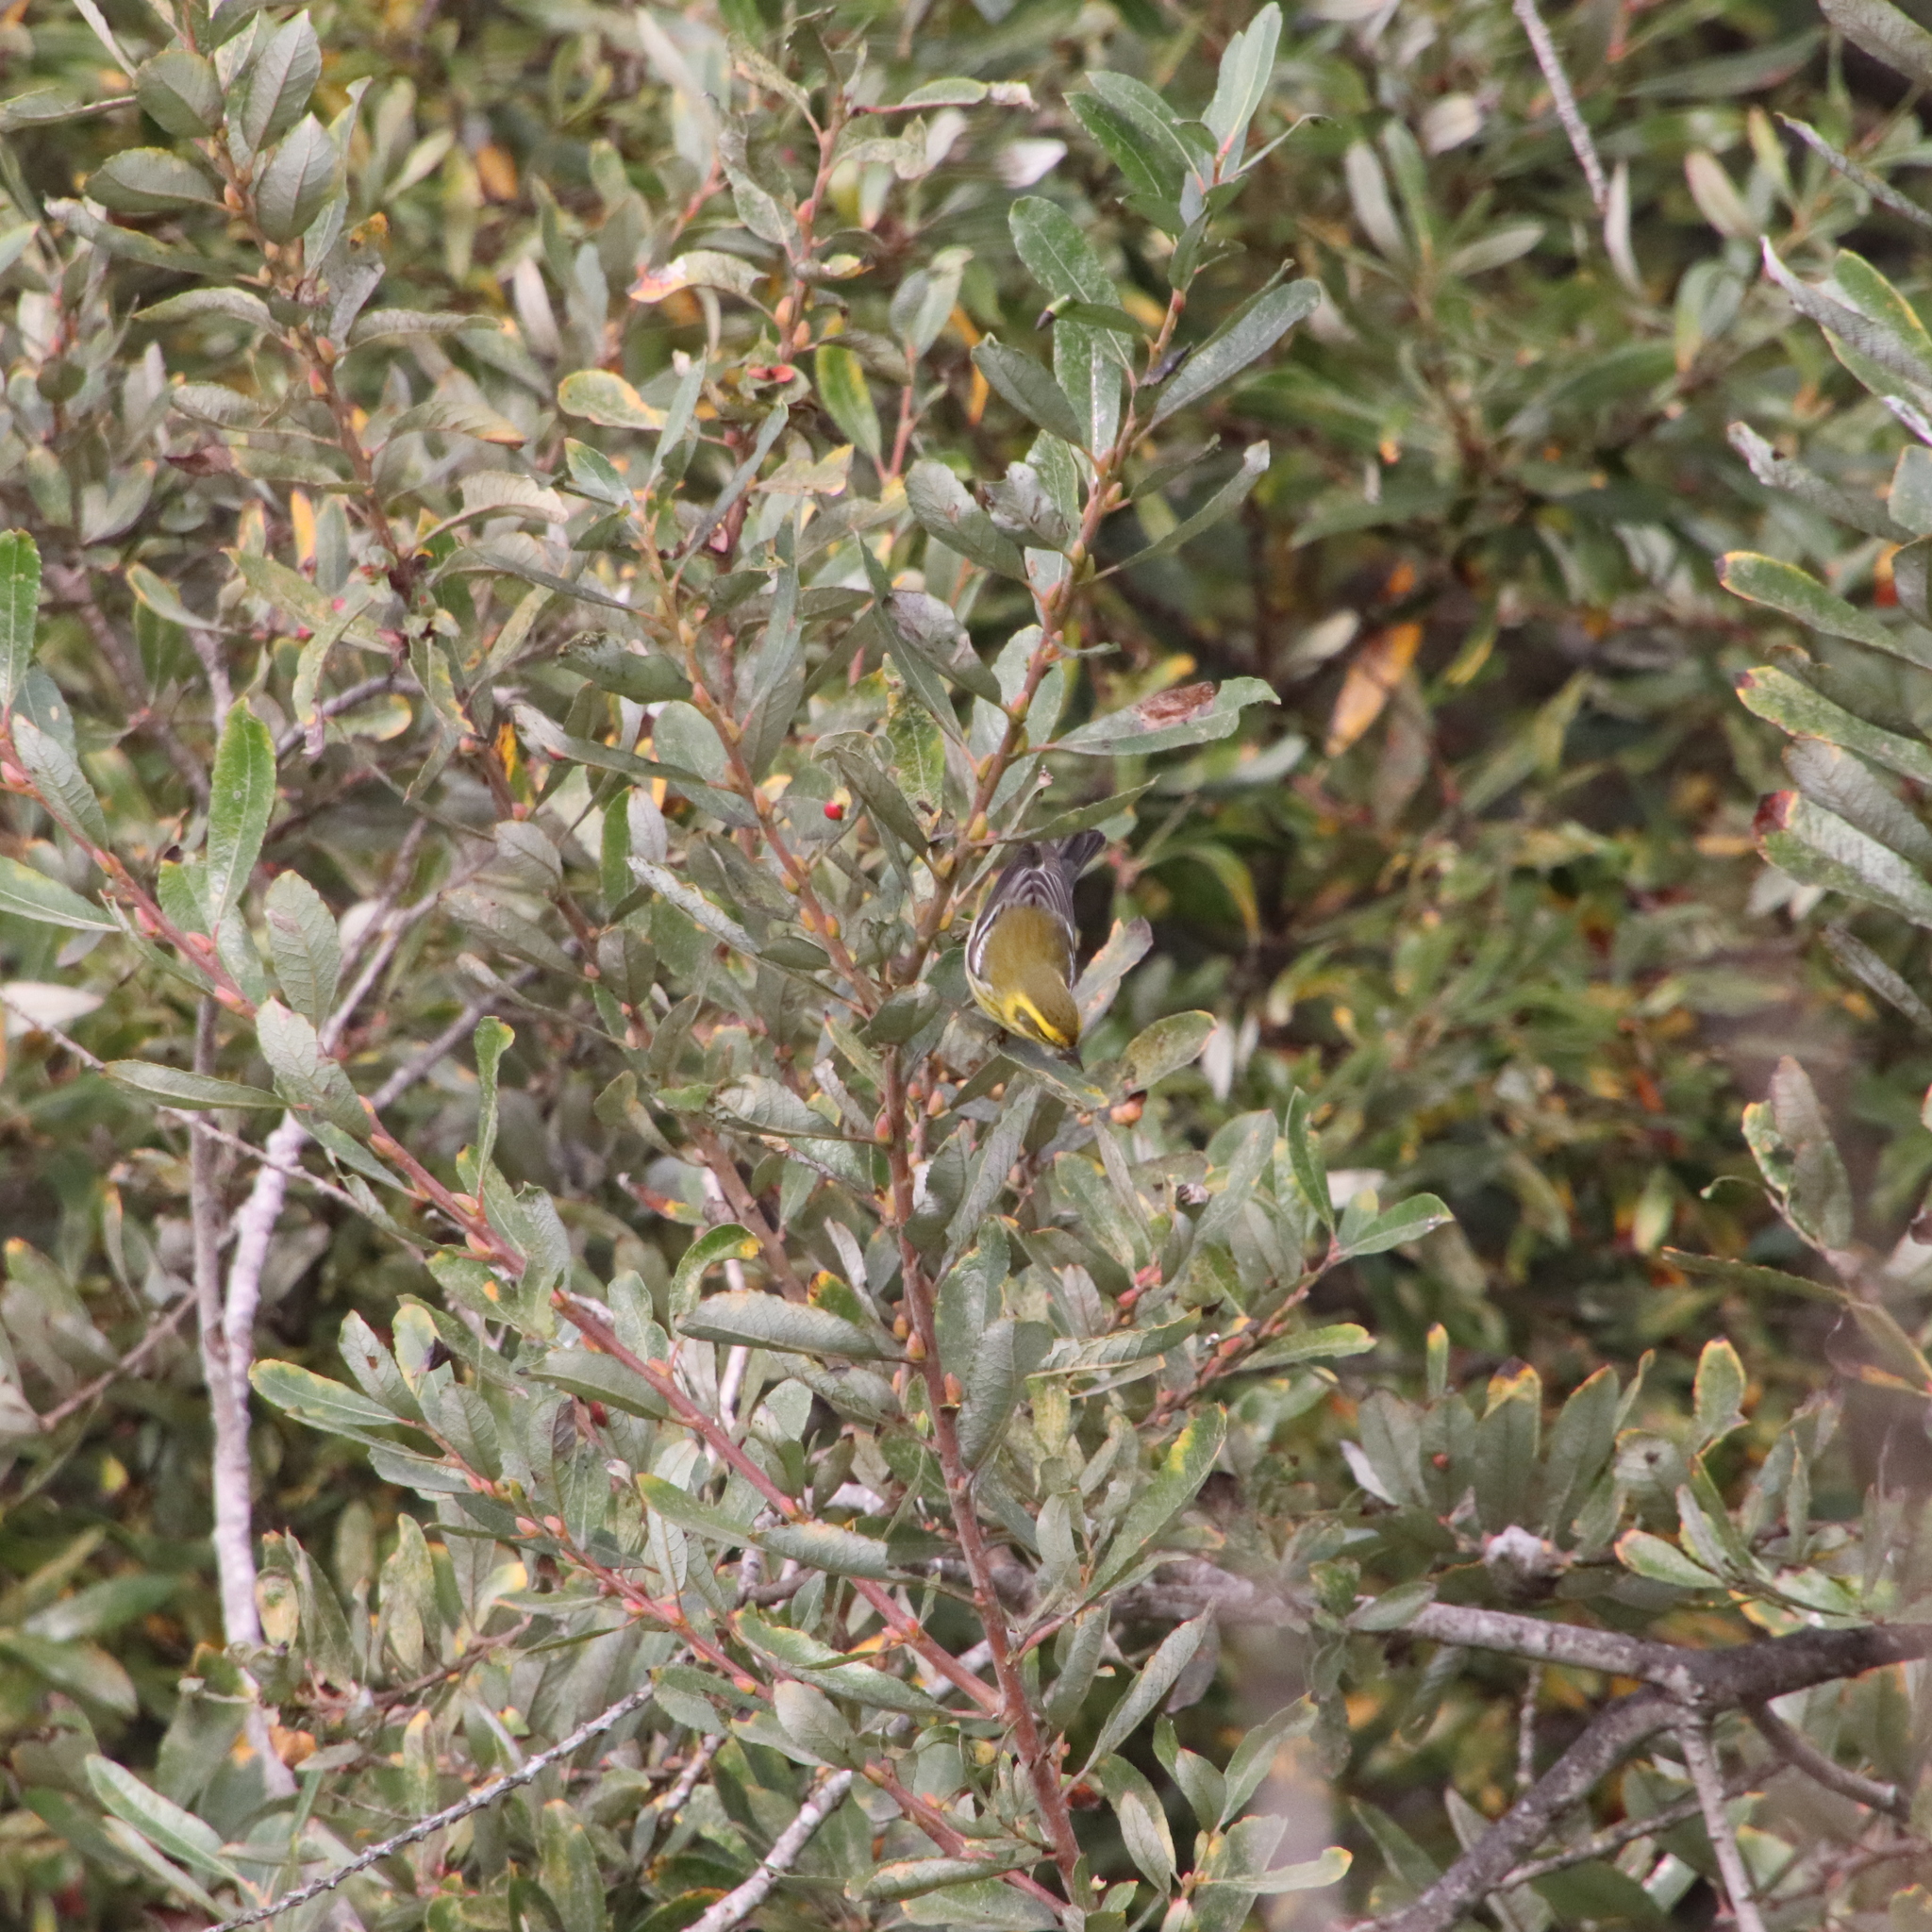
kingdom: Animalia
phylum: Chordata
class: Aves
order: Passeriformes
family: Parulidae
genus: Setophaga
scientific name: Setophaga townsendi
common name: Townsend's warbler
